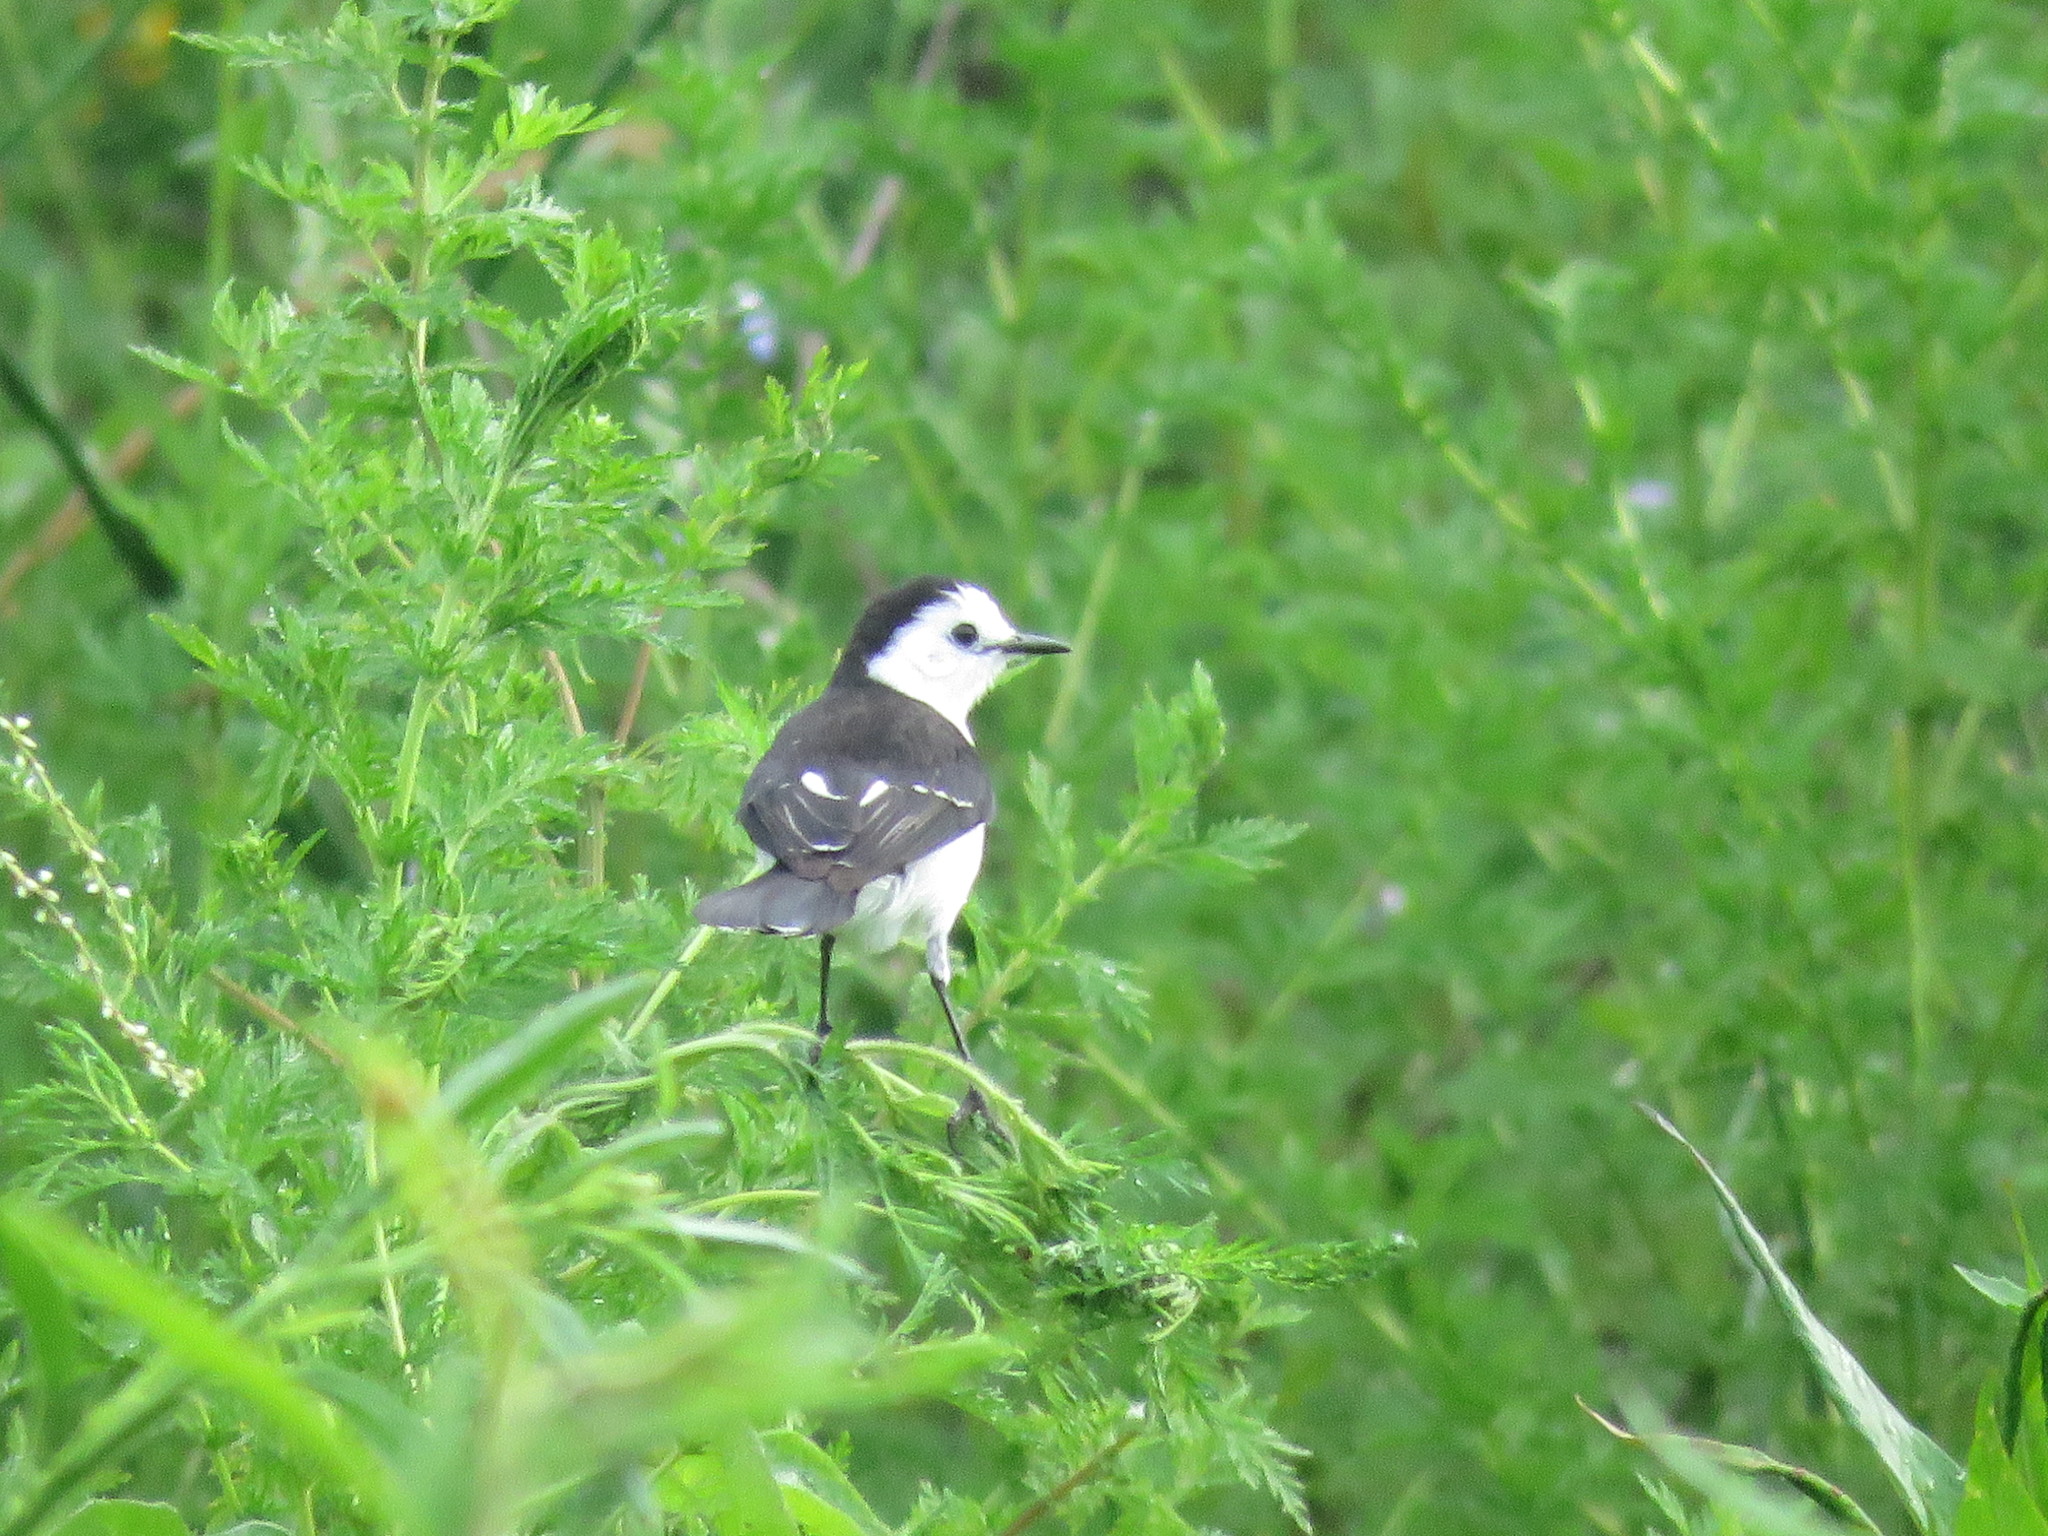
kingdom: Animalia
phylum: Chordata
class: Aves
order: Passeriformes
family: Tyrannidae
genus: Fluvicola
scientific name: Fluvicola pica
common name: Pied water-tyrant
